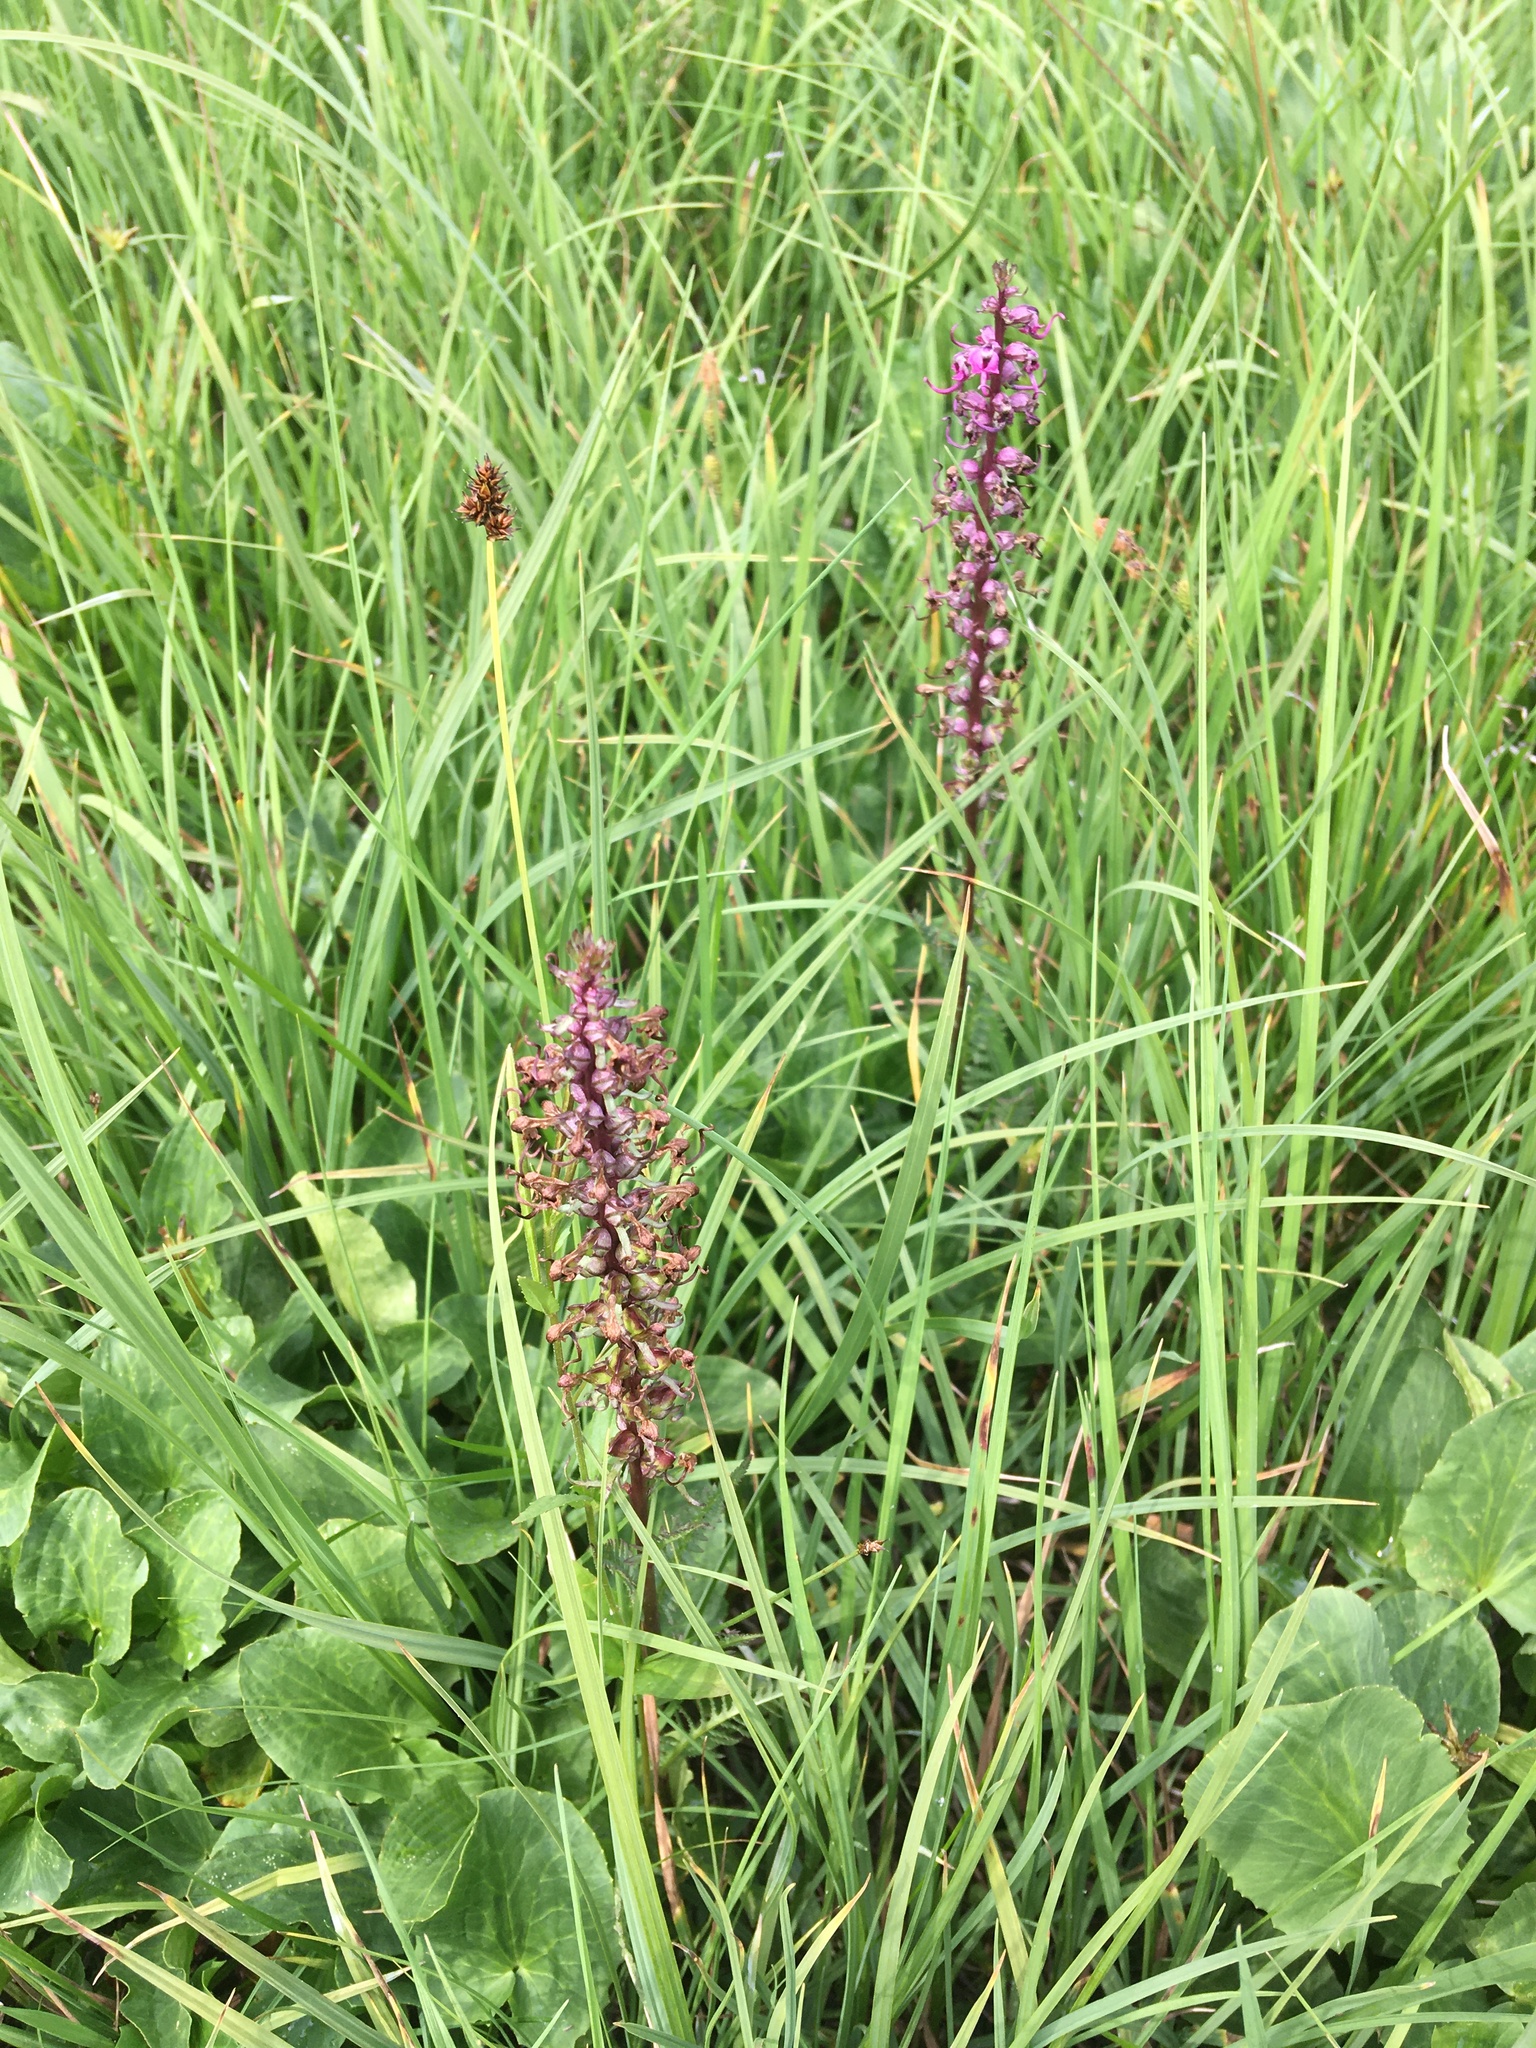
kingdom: Plantae
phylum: Tracheophyta
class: Magnoliopsida
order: Lamiales
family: Orobanchaceae
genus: Pedicularis
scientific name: Pedicularis groenlandica
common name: Elephant's-head
